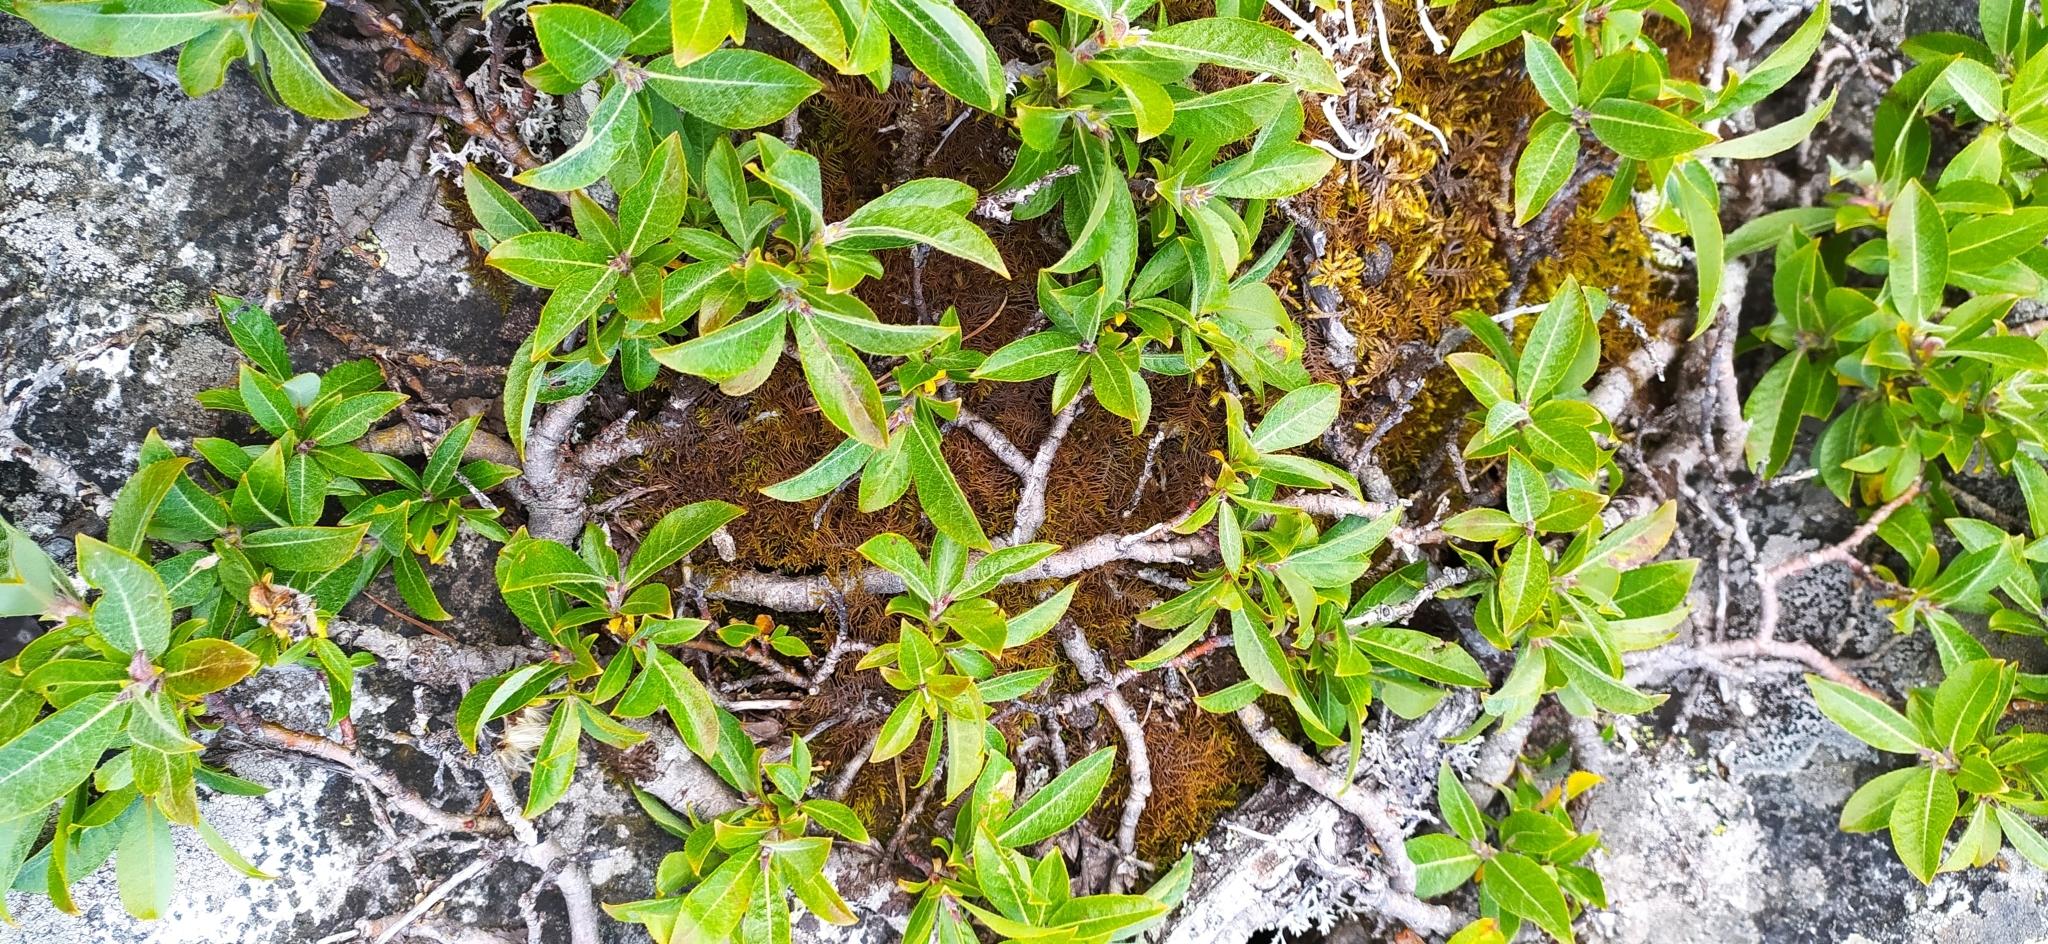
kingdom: Plantae
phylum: Tracheophyta
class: Magnoliopsida
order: Malpighiales
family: Salicaceae
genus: Salix
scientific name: Salix recurvigemmata
